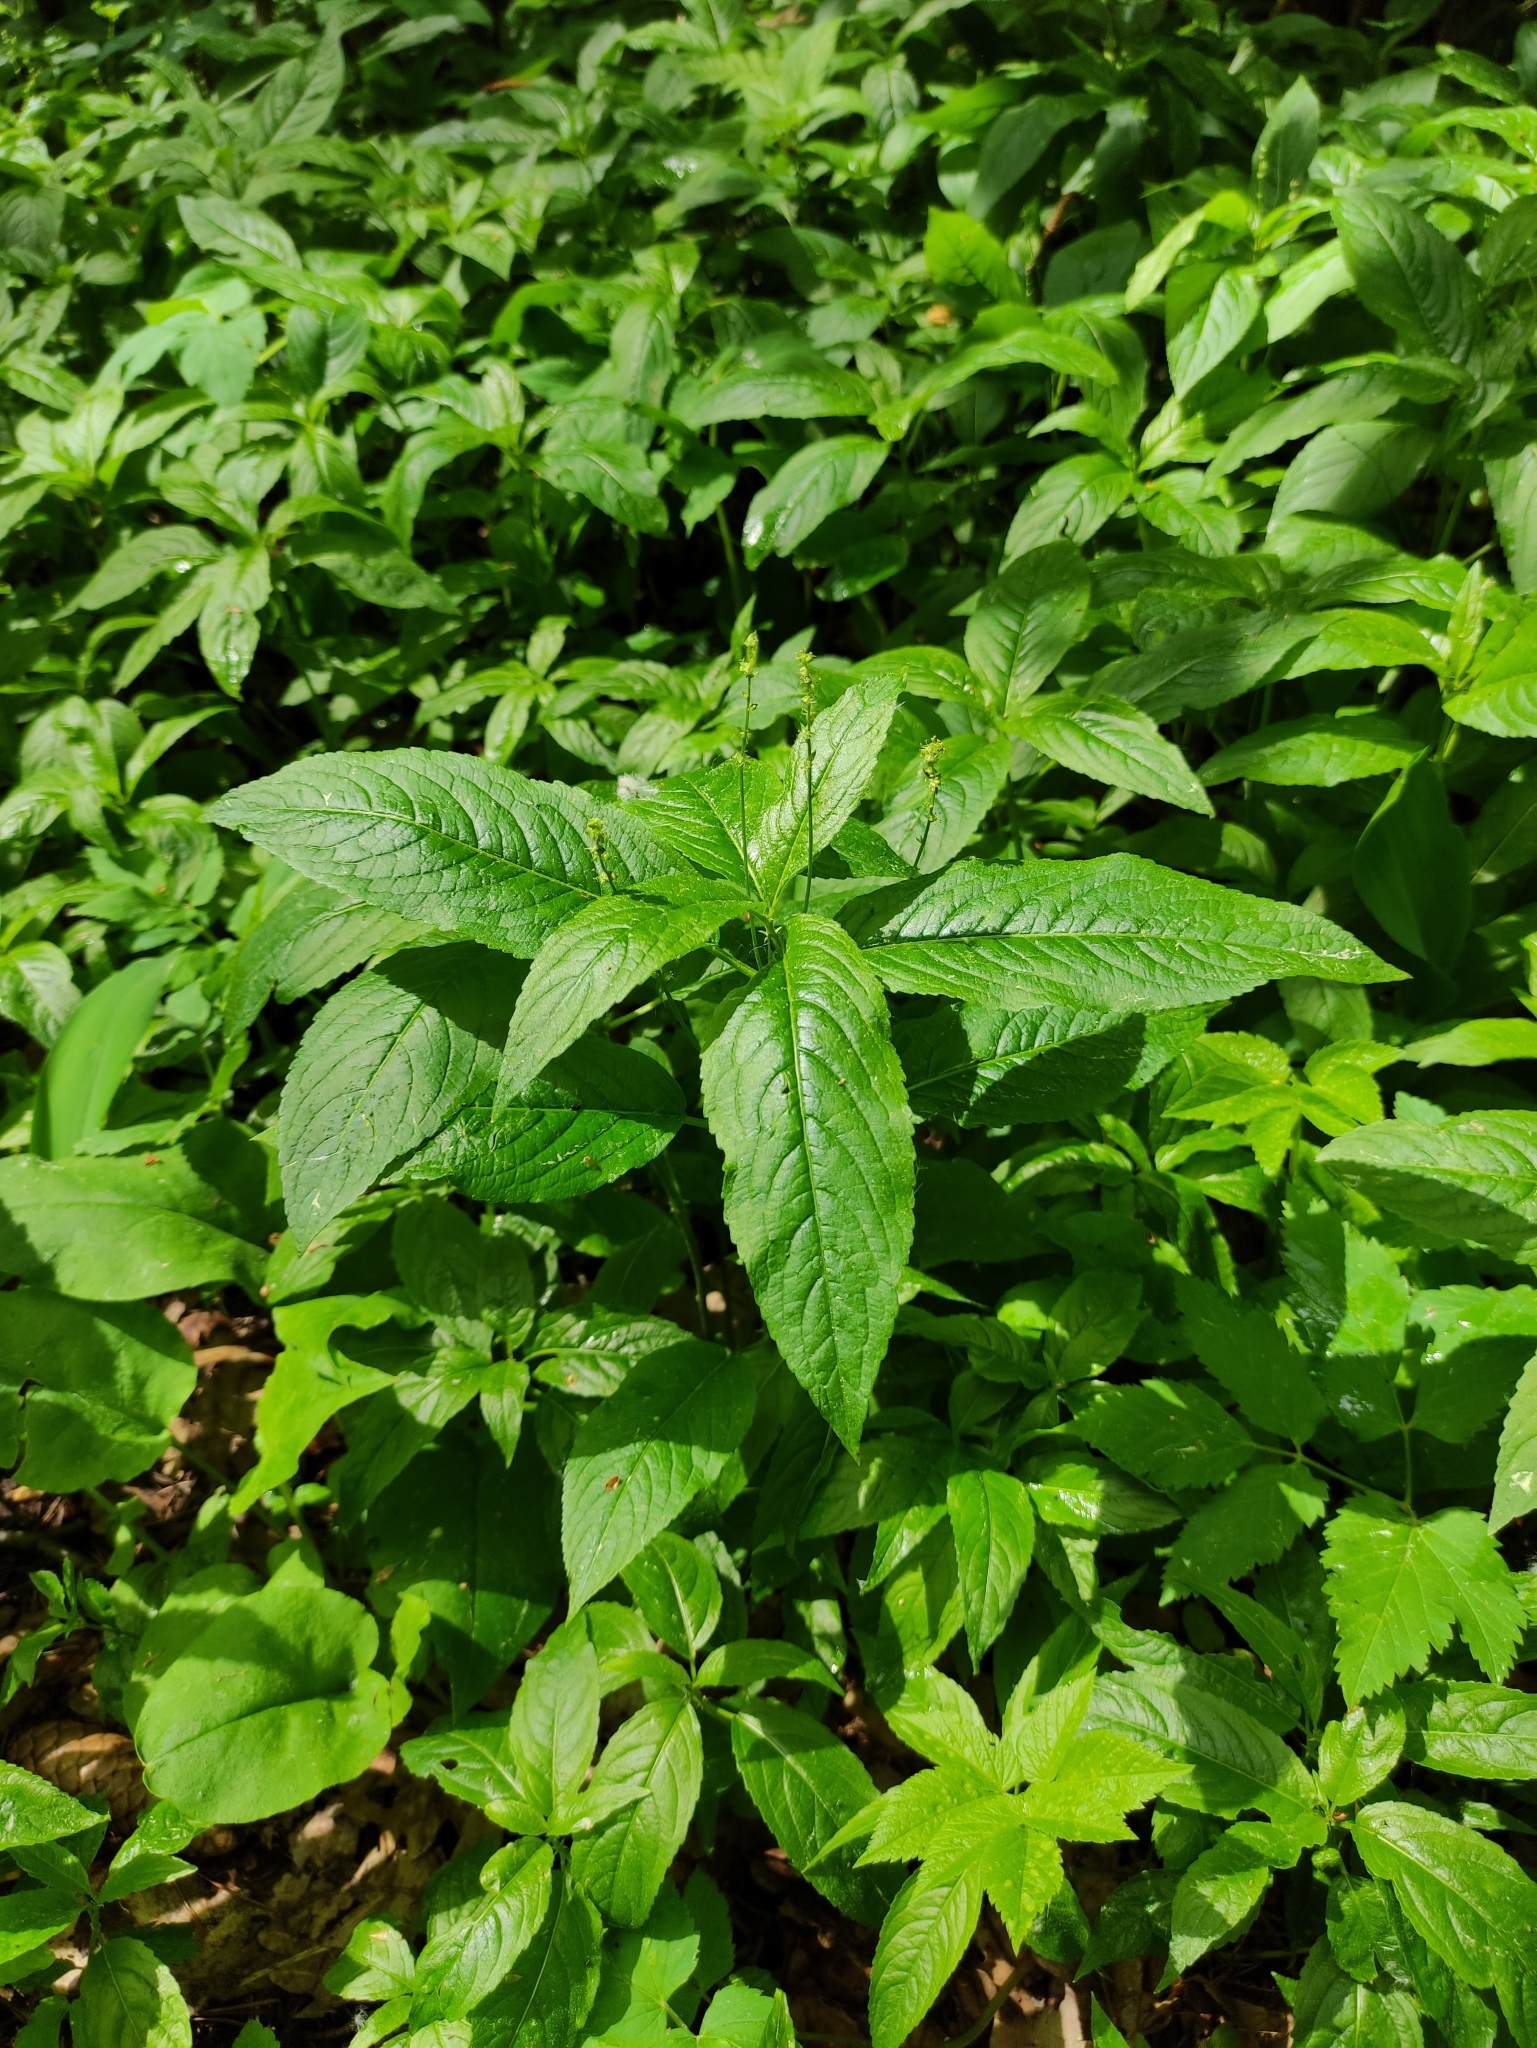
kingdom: Plantae
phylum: Tracheophyta
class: Magnoliopsida
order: Malpighiales
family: Euphorbiaceae
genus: Mercurialis
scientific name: Mercurialis perennis
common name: Dog mercury
